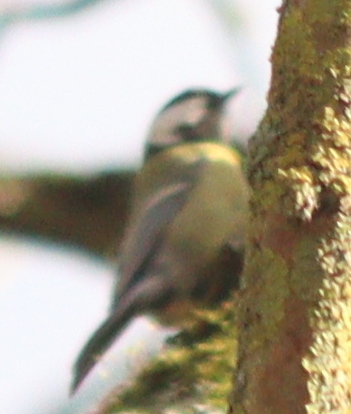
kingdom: Animalia
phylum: Chordata
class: Aves
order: Passeriformes
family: Paridae
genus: Parus
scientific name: Parus major
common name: Great tit
